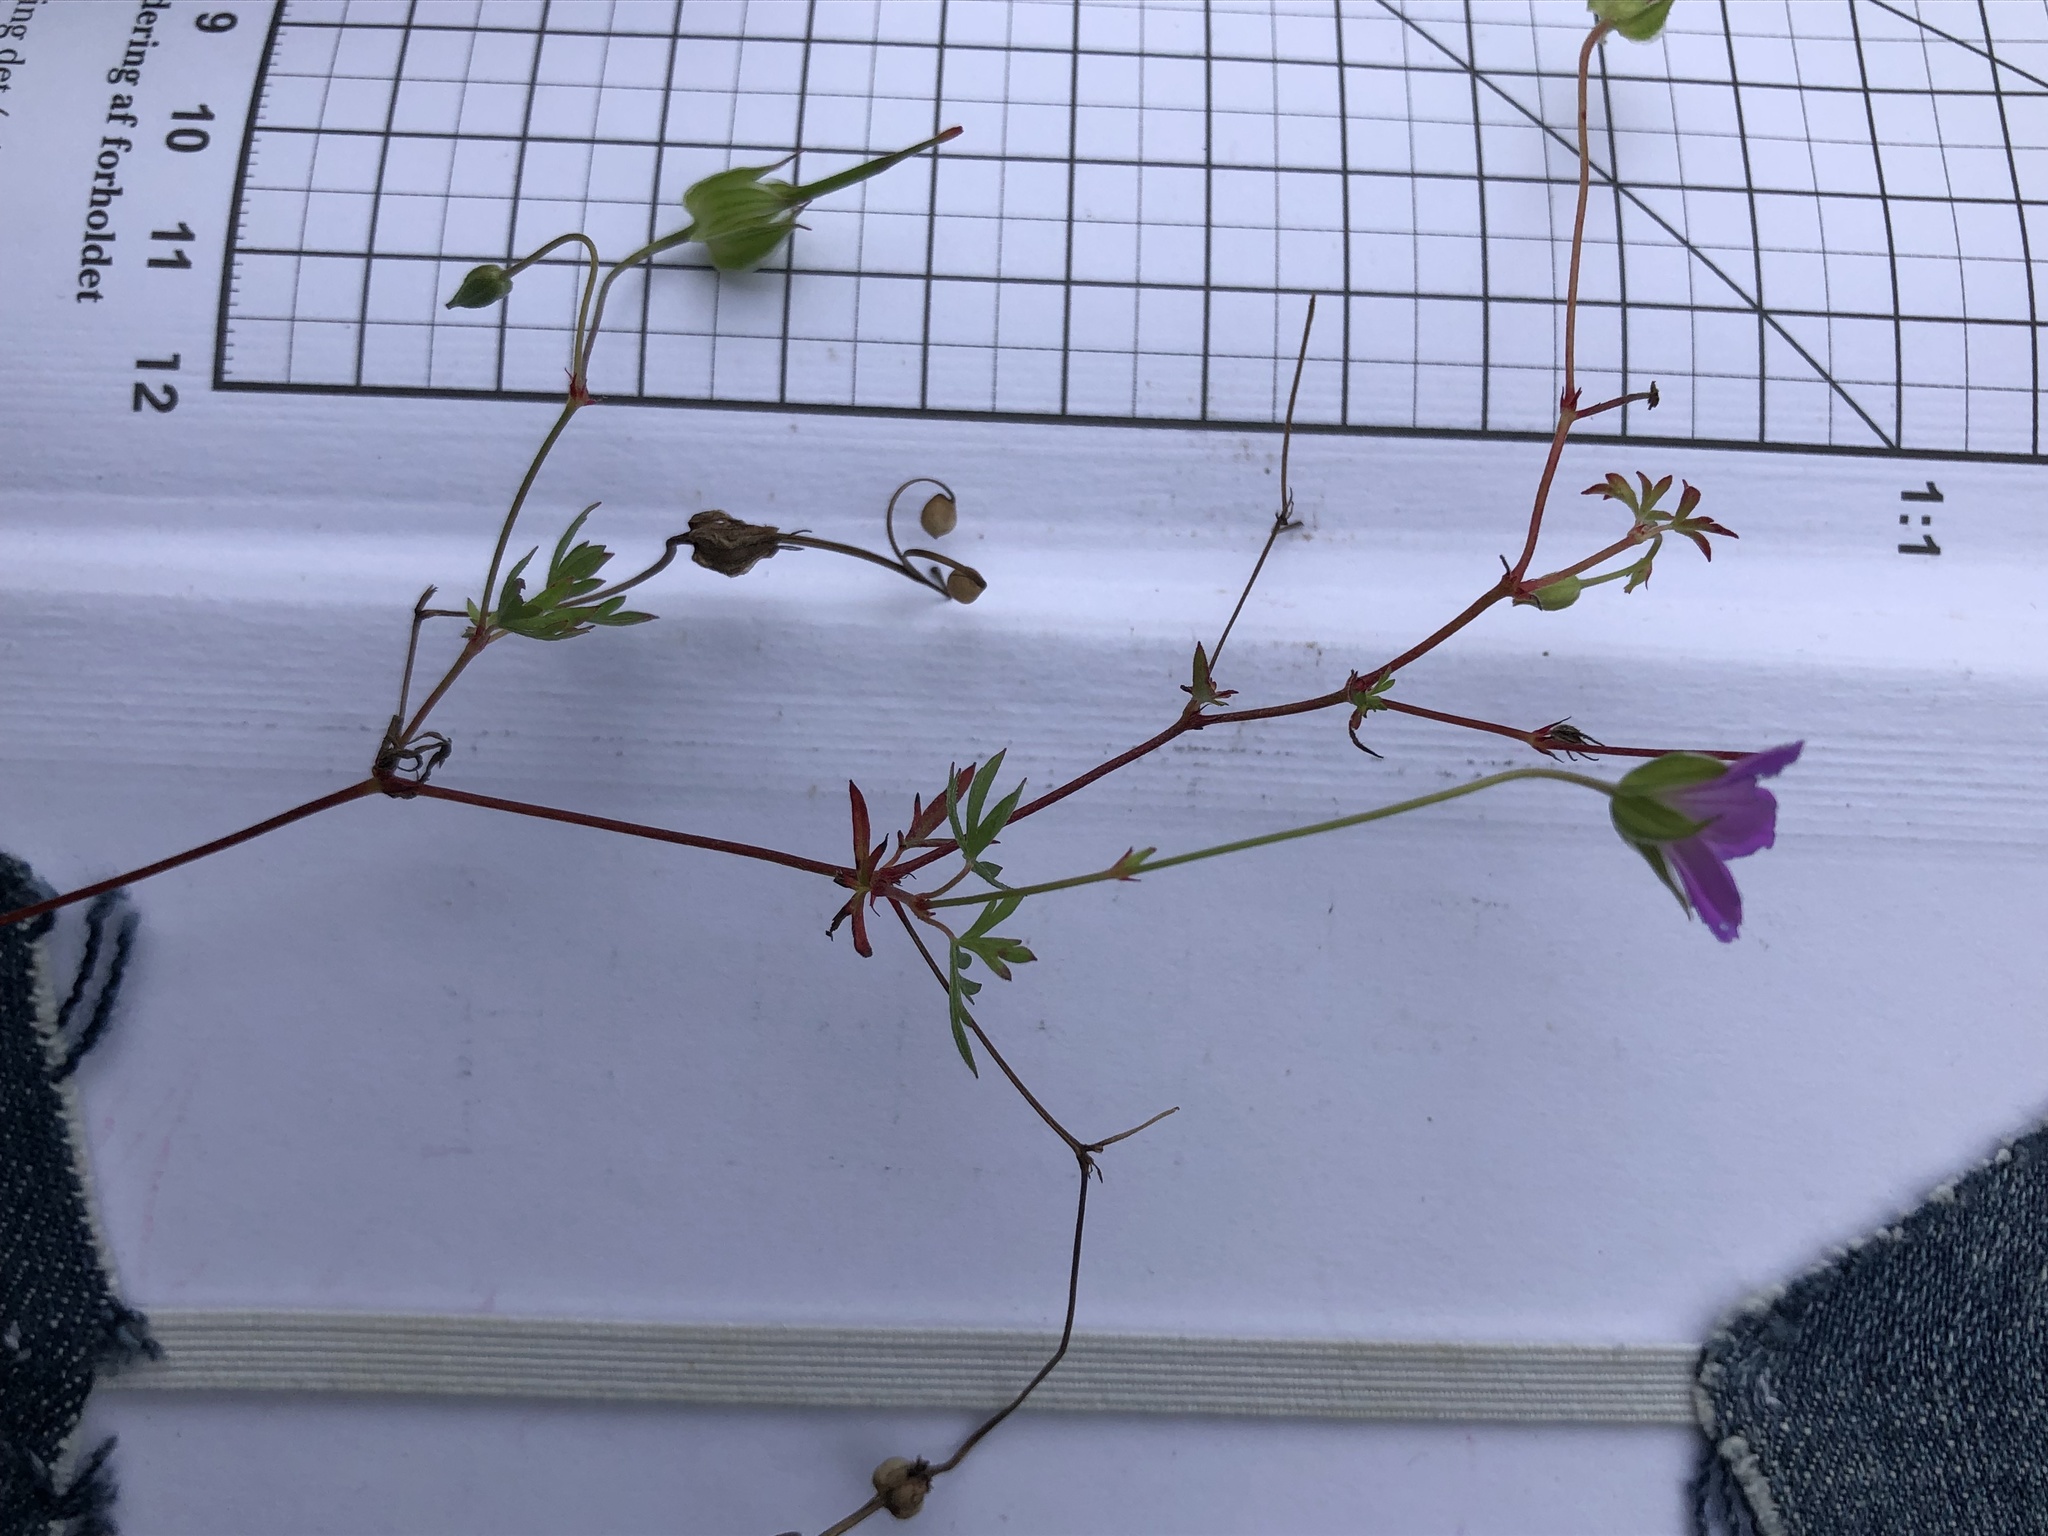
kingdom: Plantae
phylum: Tracheophyta
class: Magnoliopsida
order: Geraniales
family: Geraniaceae
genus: Geranium
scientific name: Geranium columbinum
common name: Long-stalked crane's-bill
